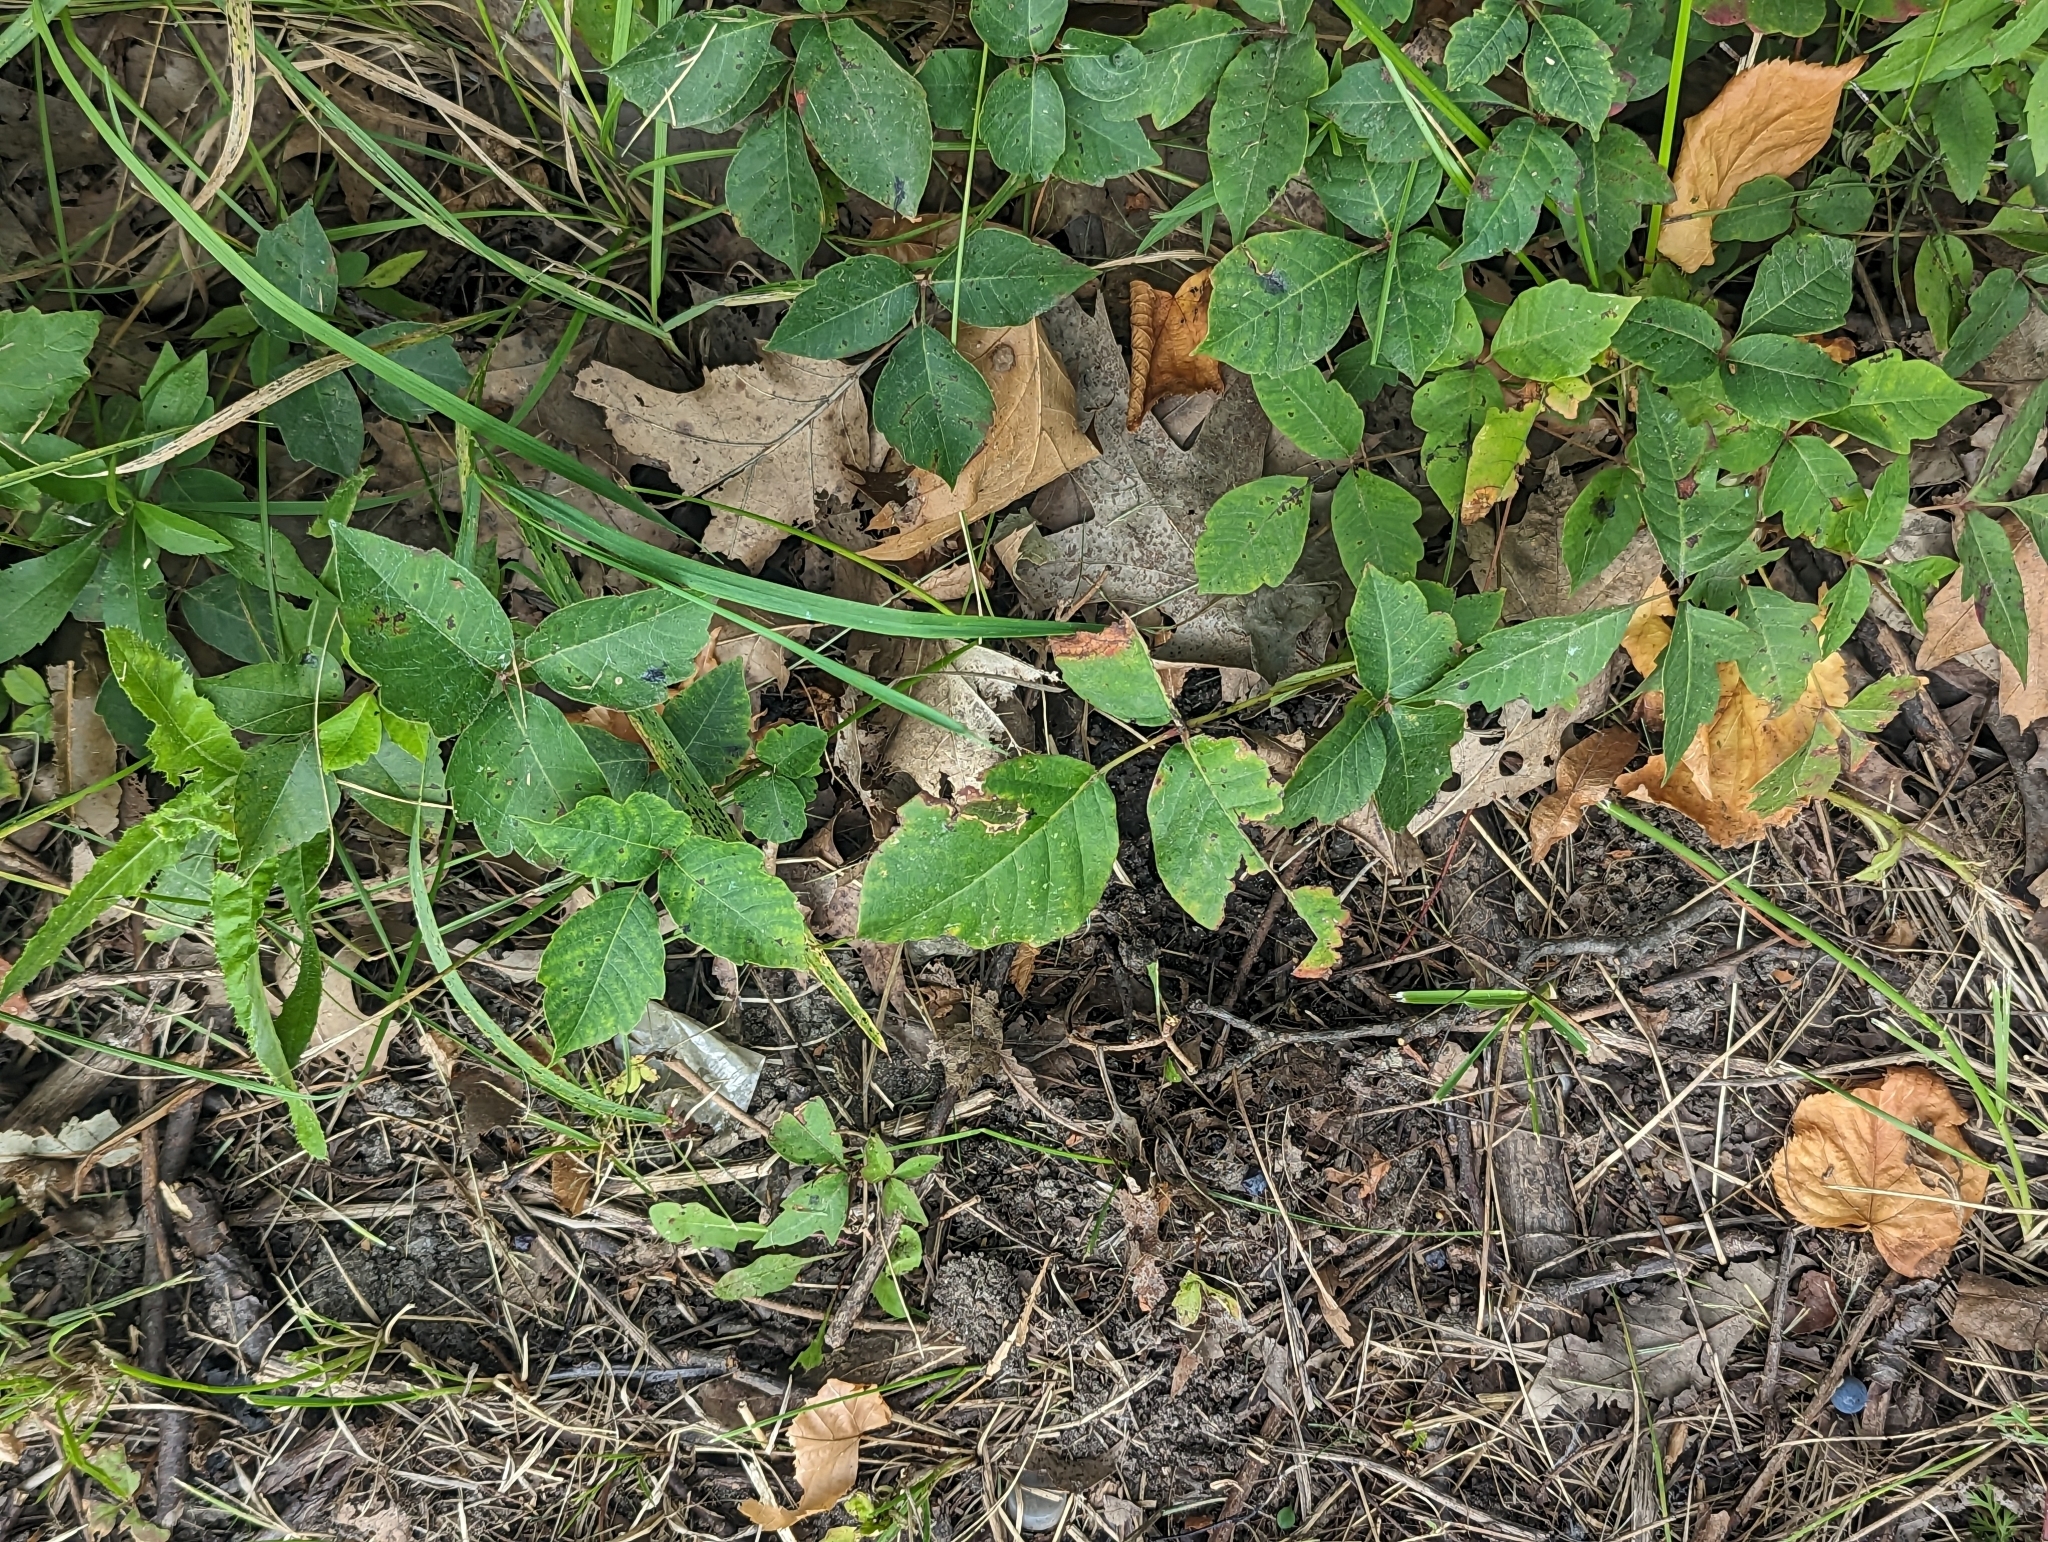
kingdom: Plantae
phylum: Tracheophyta
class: Magnoliopsida
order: Sapindales
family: Anacardiaceae
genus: Toxicodendron
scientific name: Toxicodendron radicans
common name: Poison ivy
